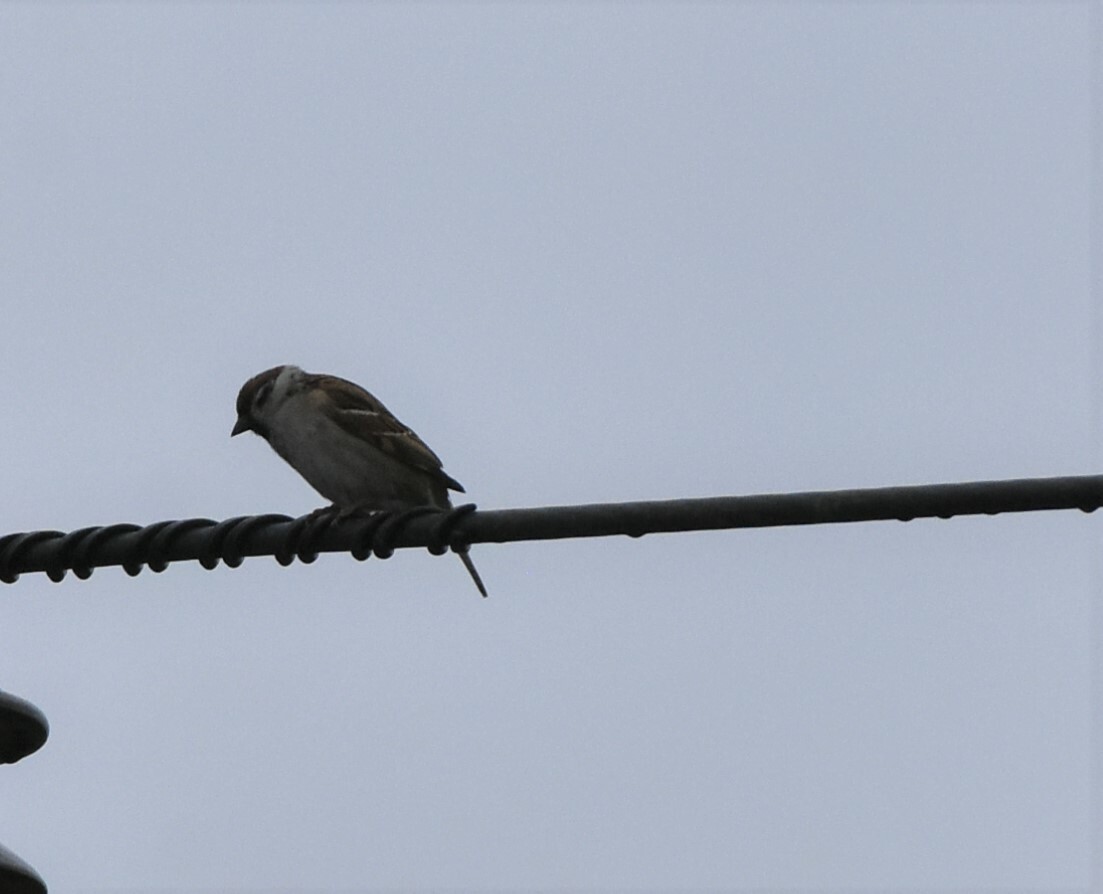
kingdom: Animalia
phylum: Chordata
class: Aves
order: Passeriformes
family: Passeridae
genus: Passer
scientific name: Passer montanus
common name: Eurasian tree sparrow
